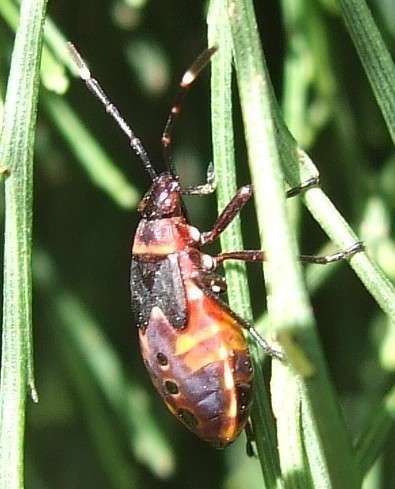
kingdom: Animalia
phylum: Arthropoda
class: Insecta
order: Hemiptera
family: Pyrrhocoridae
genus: Dindymus
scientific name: Dindymus
